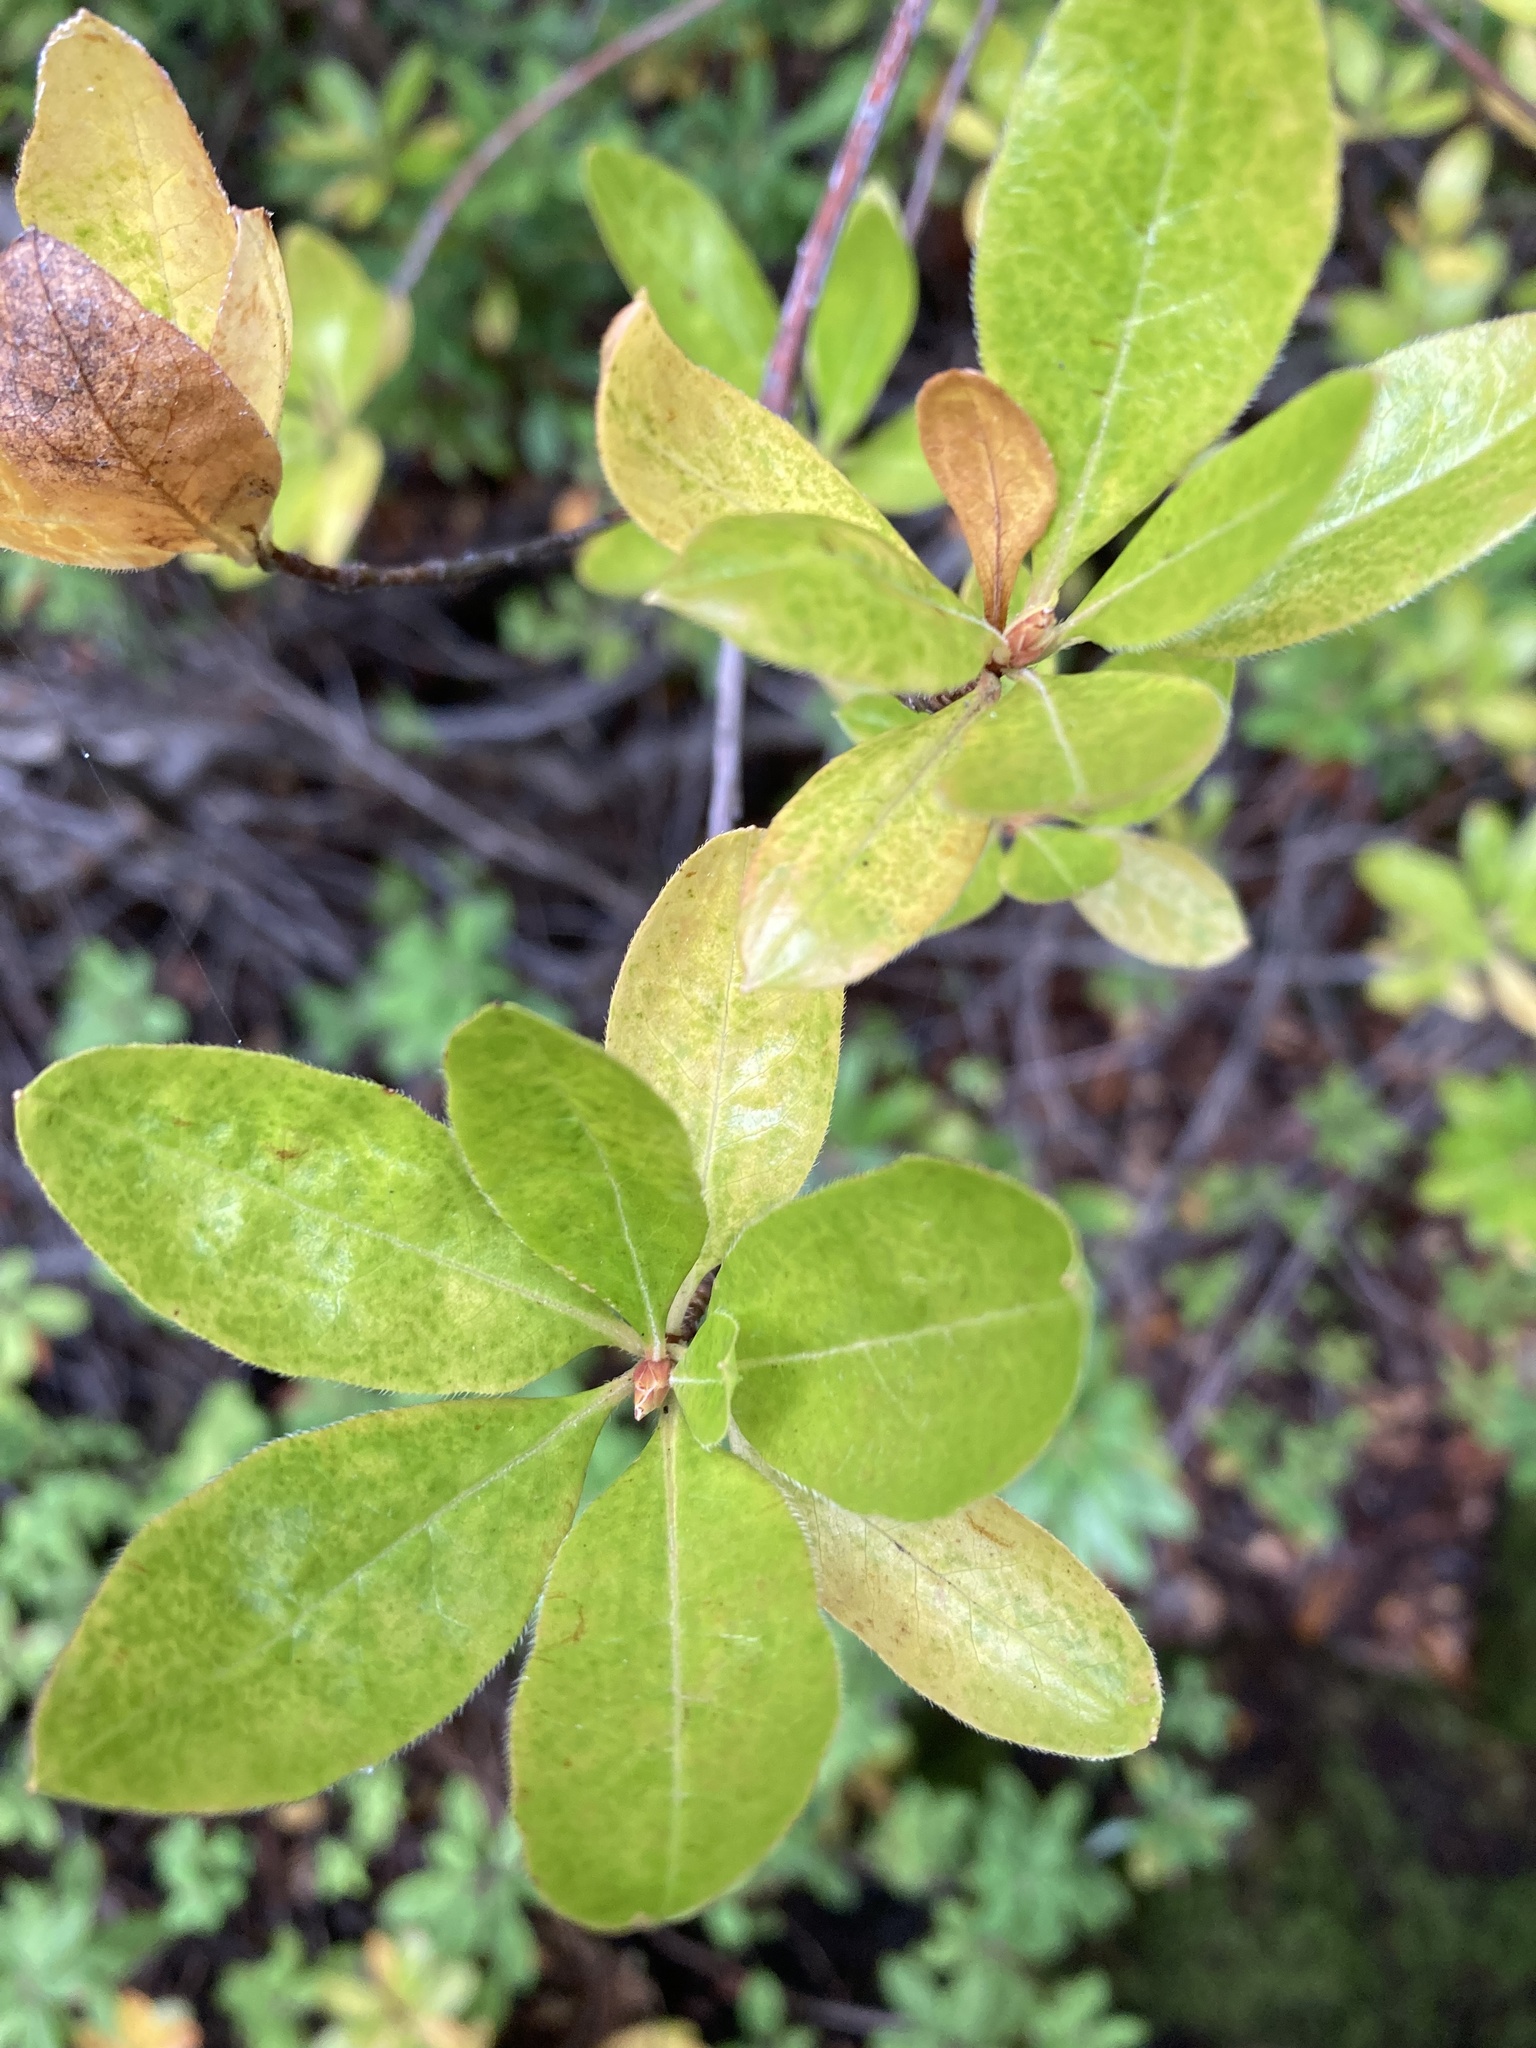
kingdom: Plantae
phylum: Tracheophyta
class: Magnoliopsida
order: Ericales
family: Ericaceae
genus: Rhododendron
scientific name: Rhododendron occidentale
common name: Western azalea
